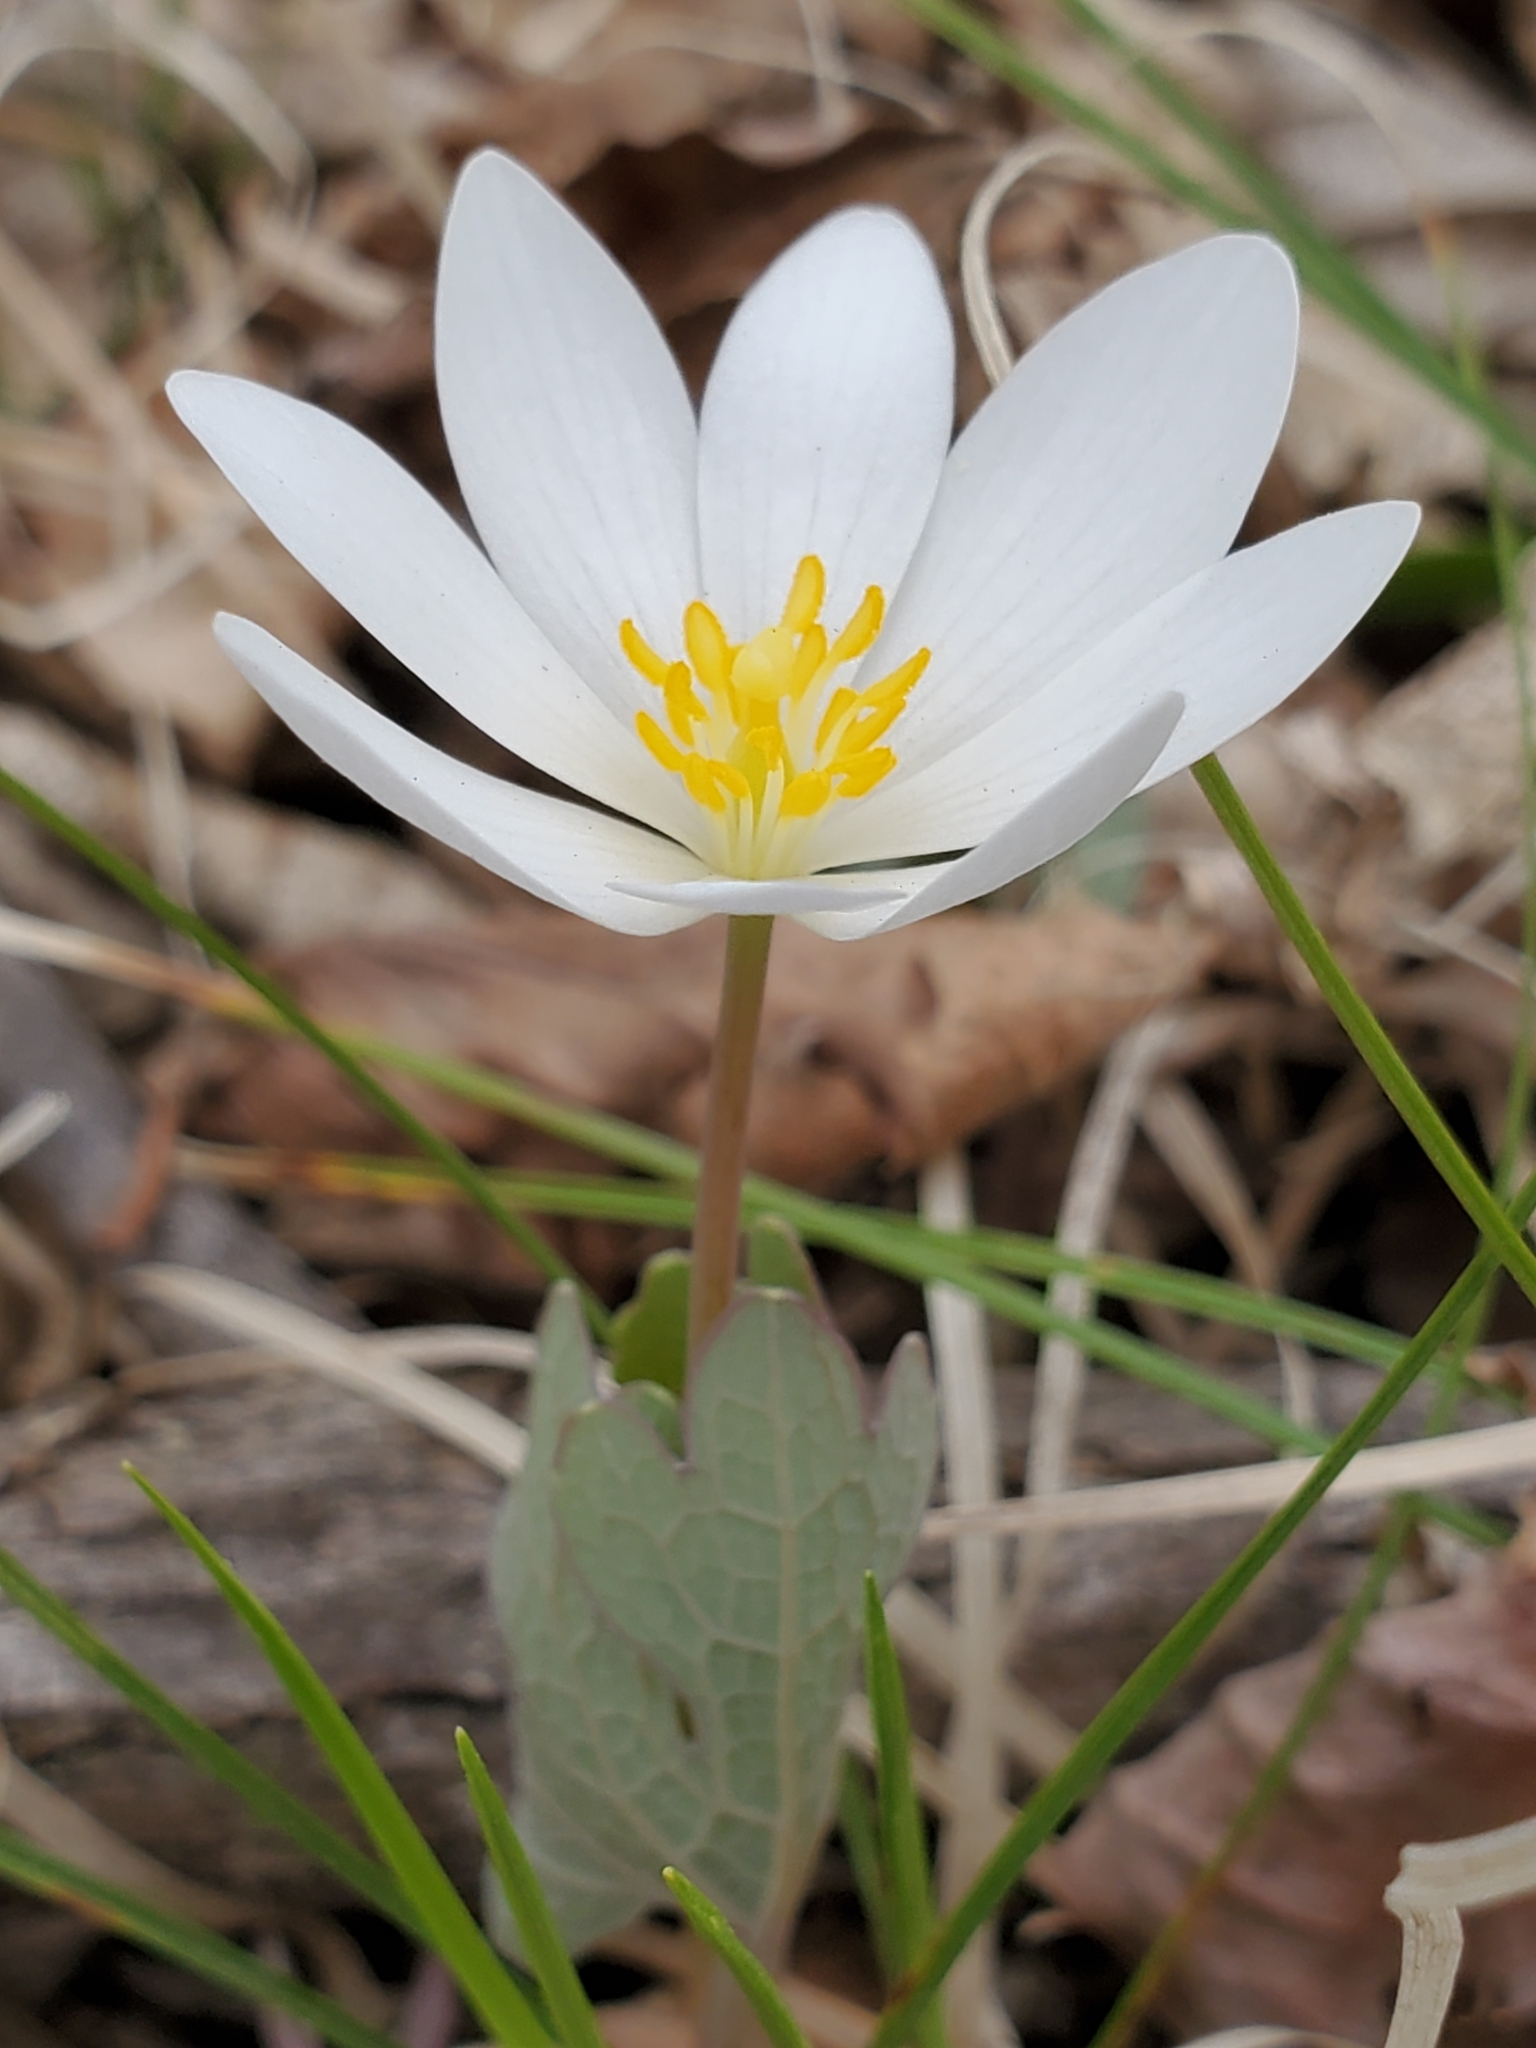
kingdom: Plantae
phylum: Tracheophyta
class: Magnoliopsida
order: Ranunculales
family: Papaveraceae
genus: Sanguinaria
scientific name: Sanguinaria canadensis
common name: Bloodroot
